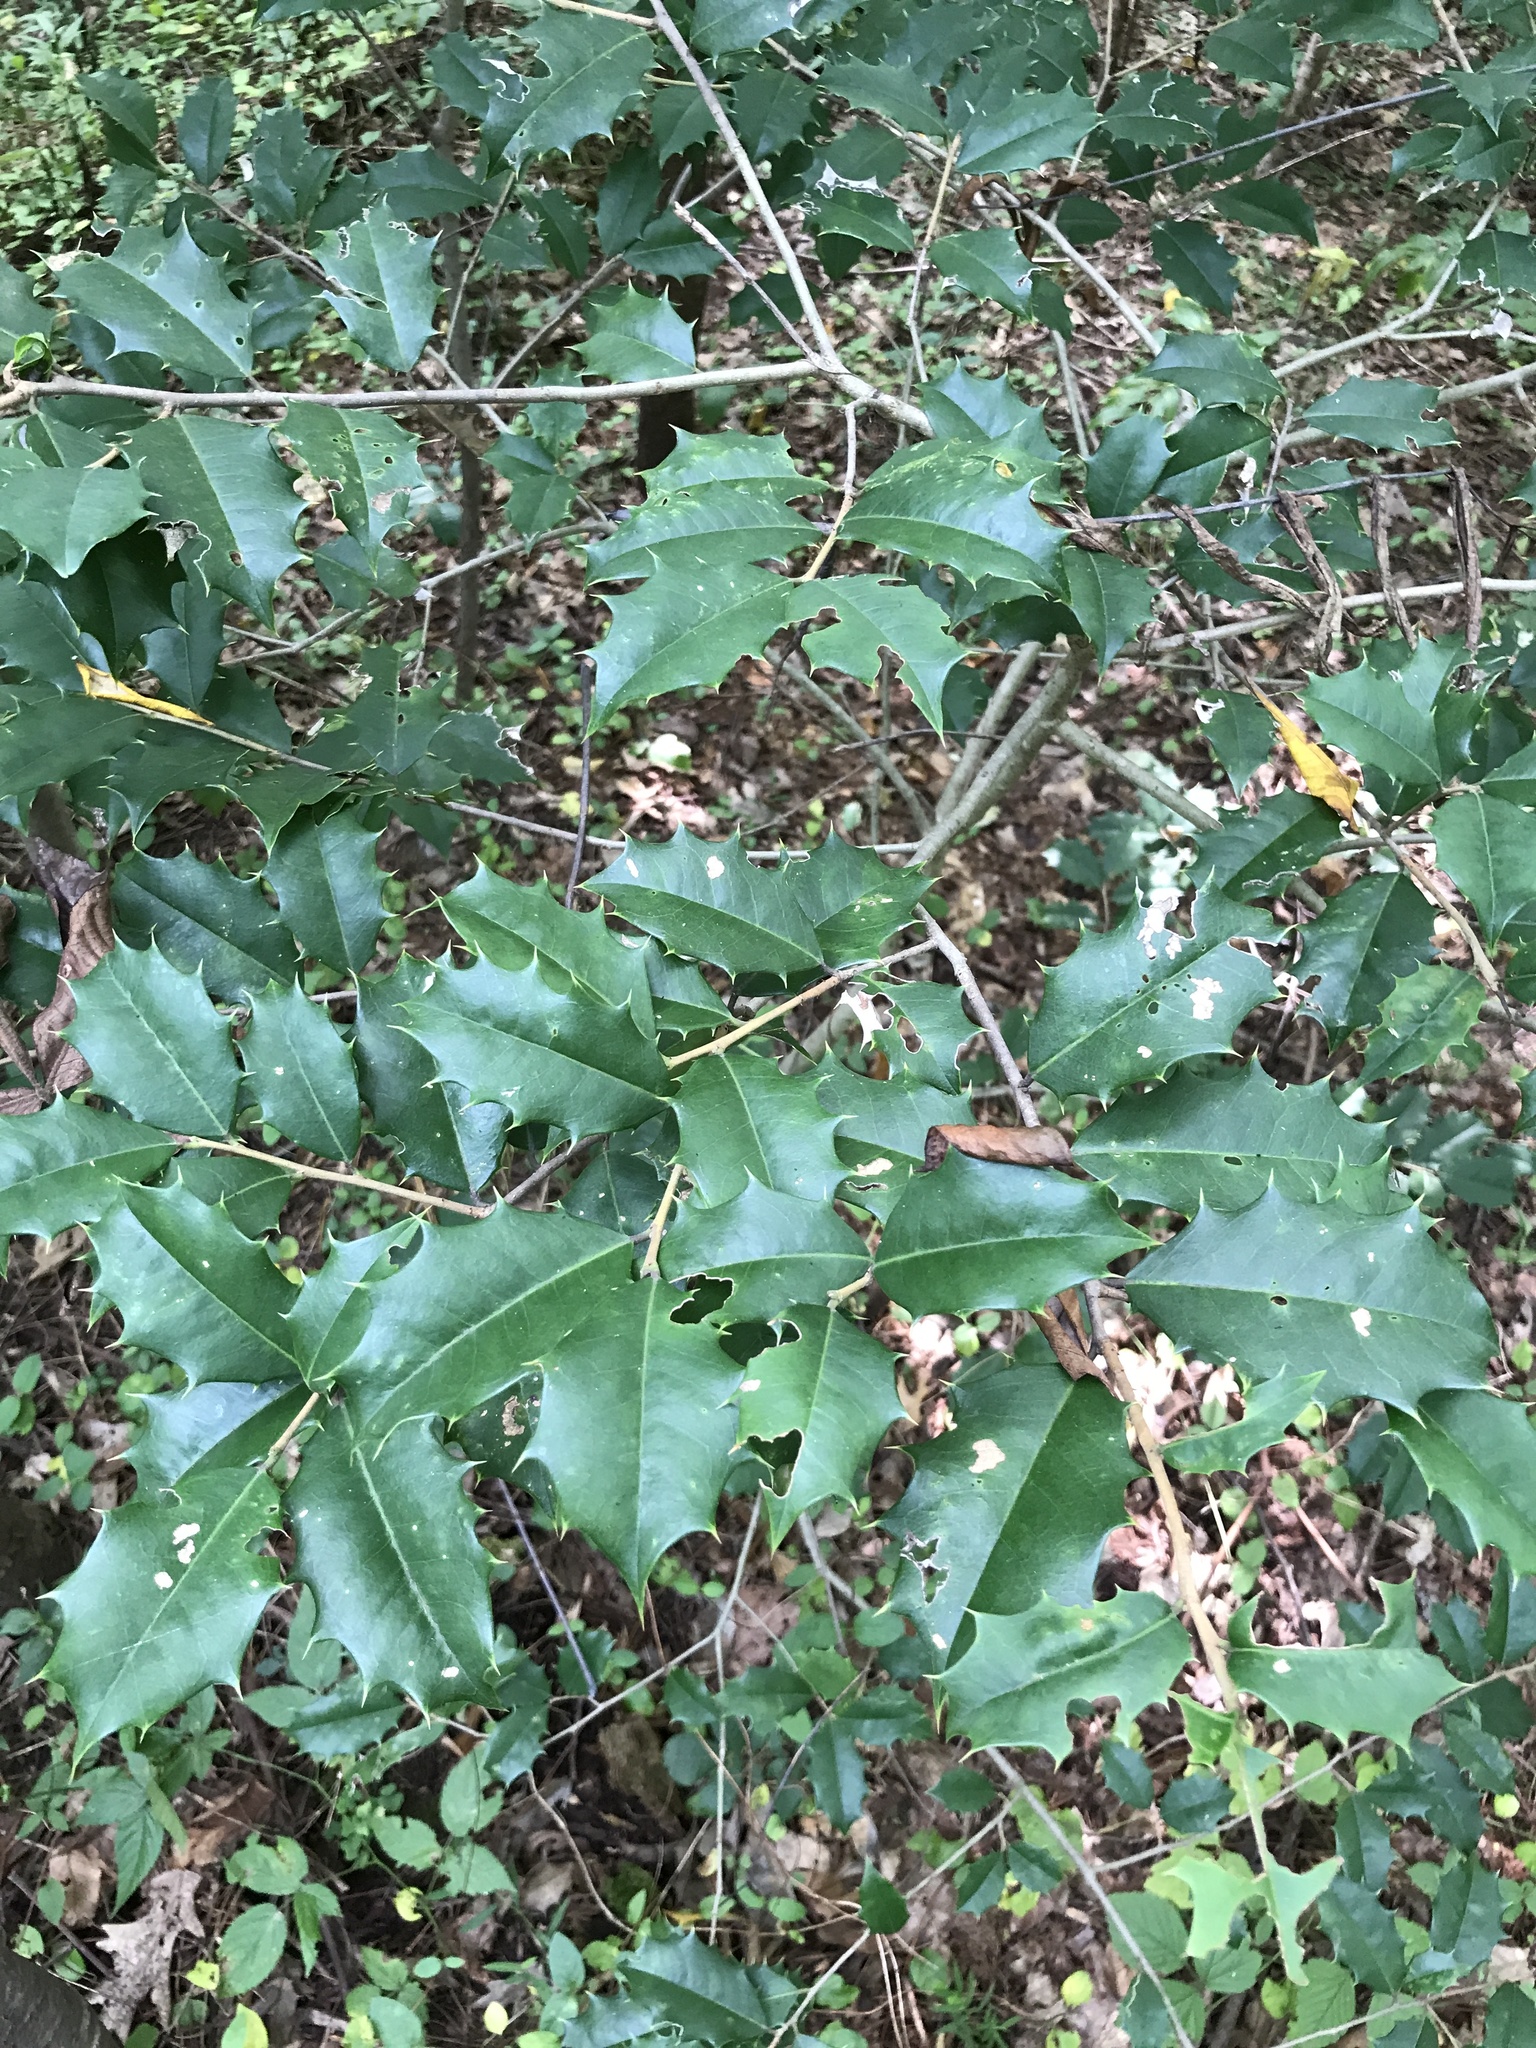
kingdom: Plantae
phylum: Tracheophyta
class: Magnoliopsida
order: Aquifoliales
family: Aquifoliaceae
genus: Ilex
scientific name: Ilex opaca
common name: American holly
